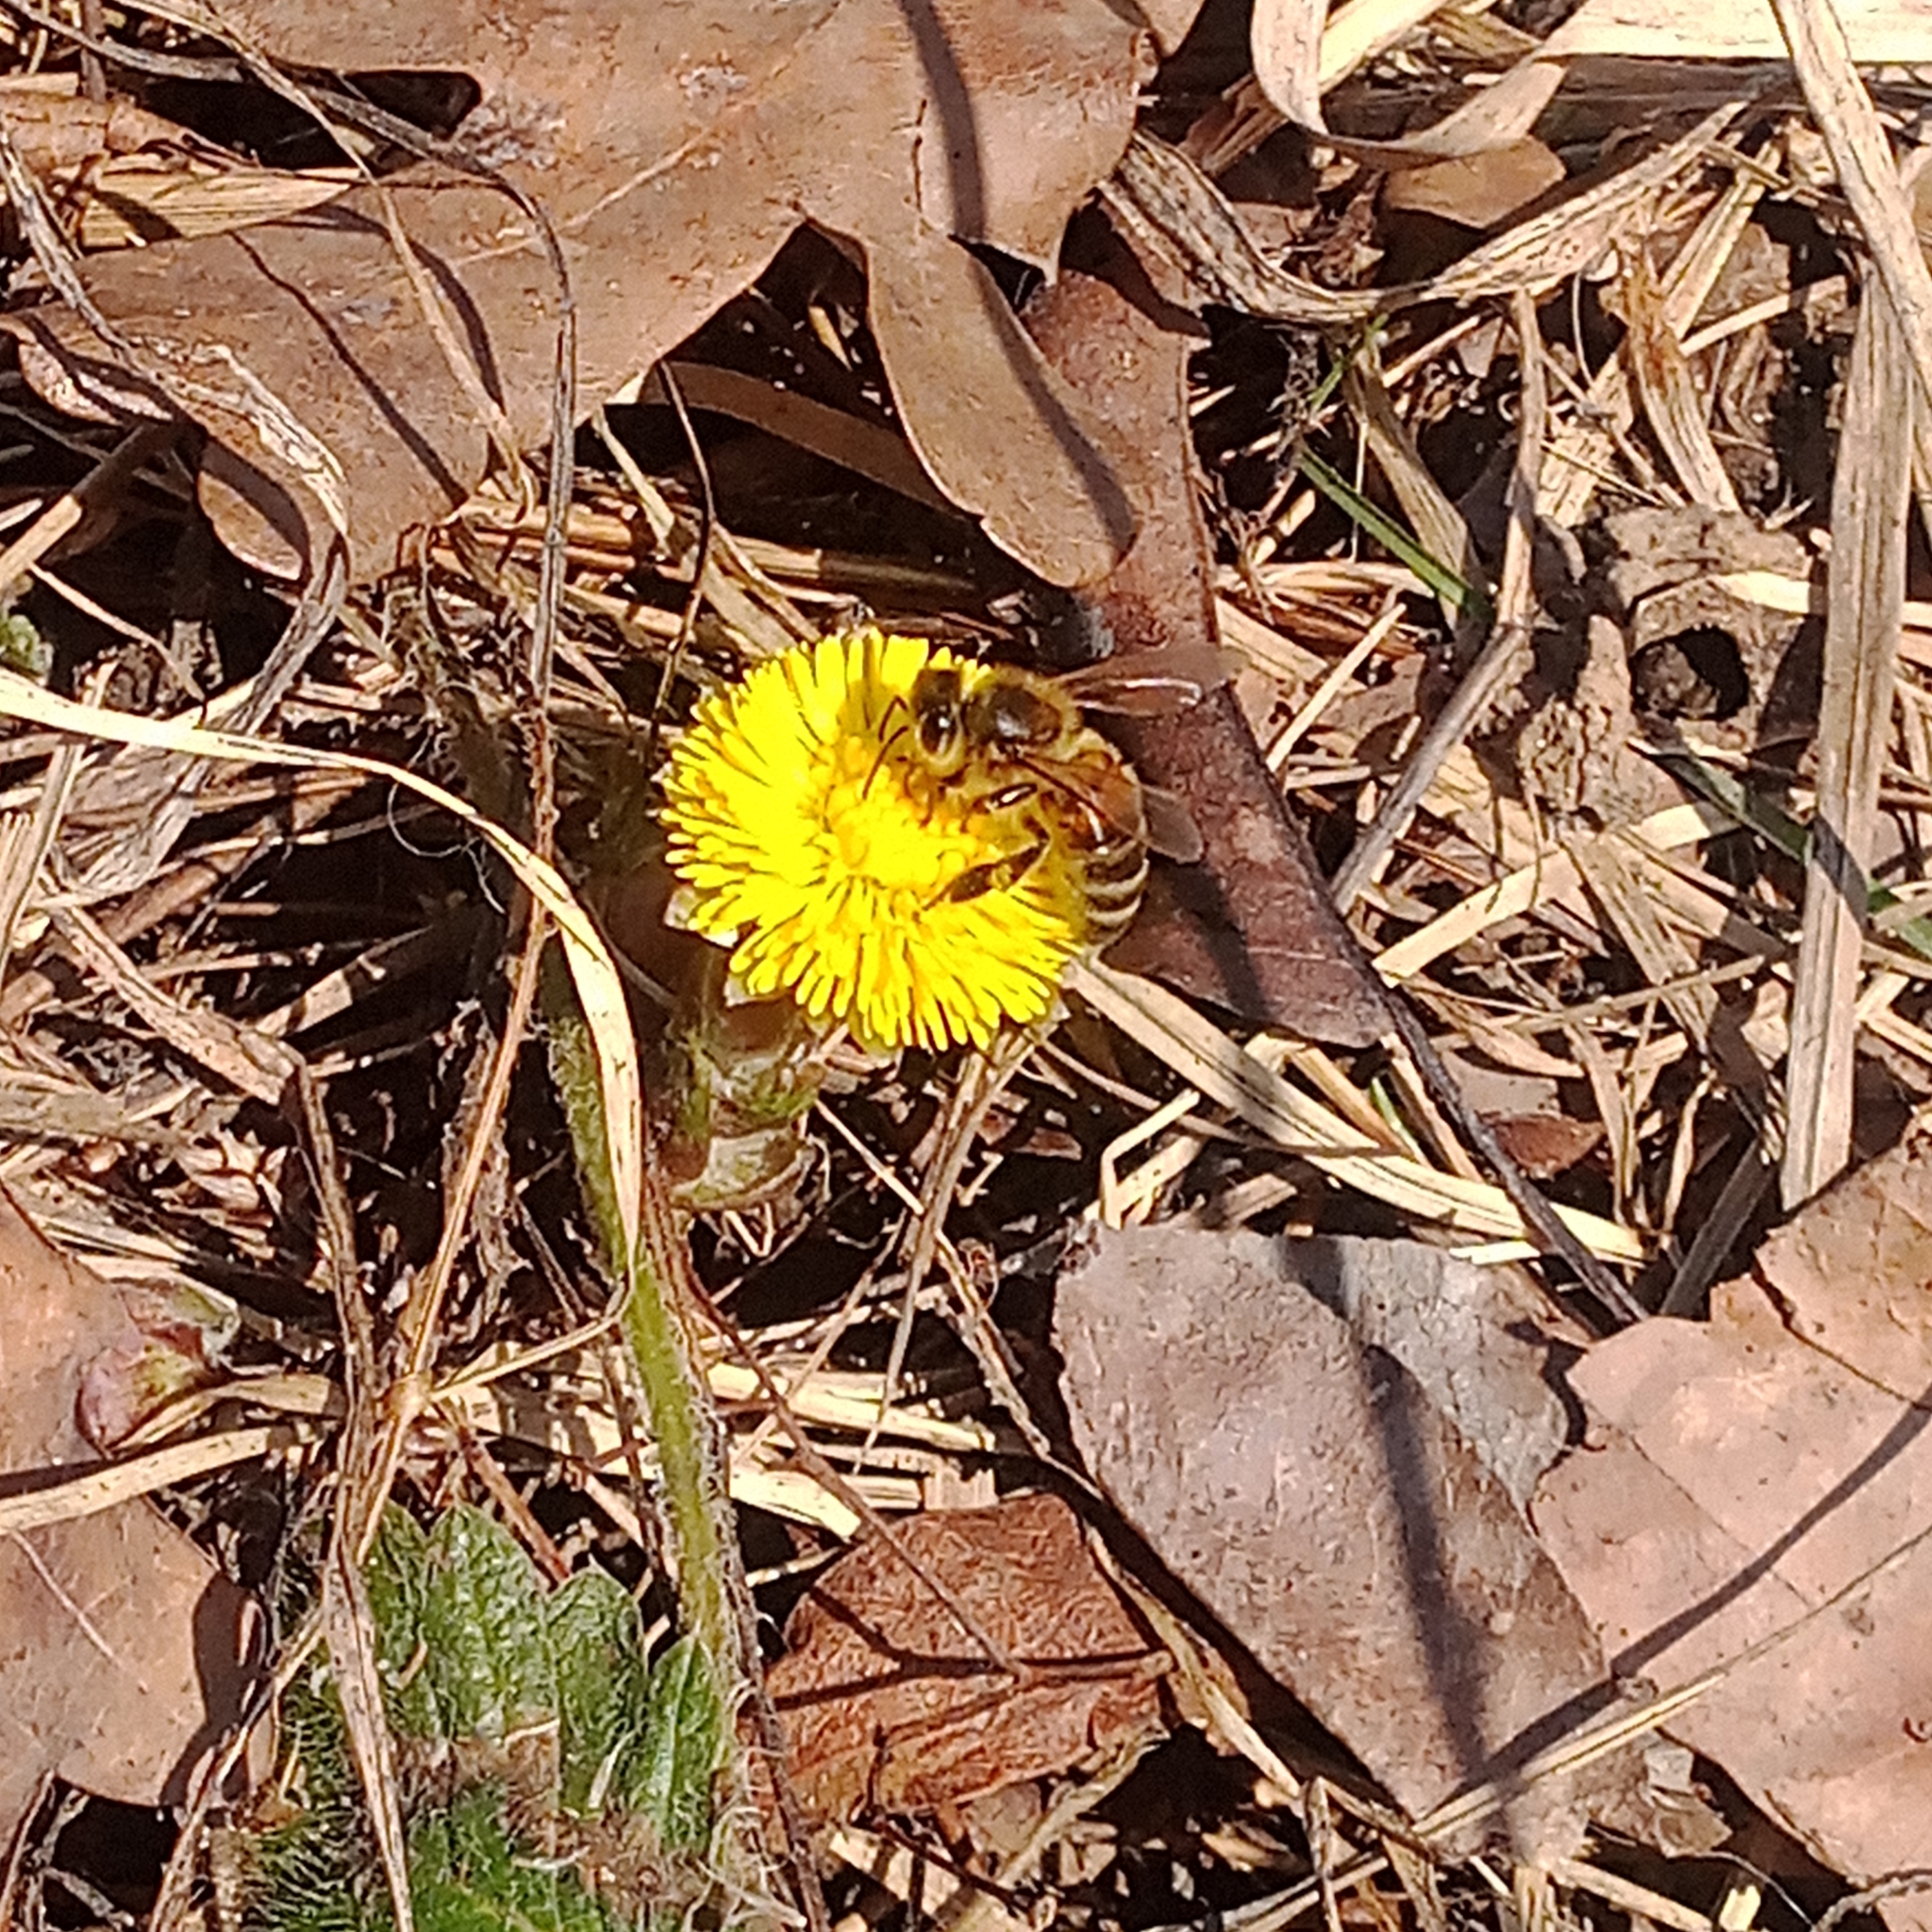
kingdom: Animalia
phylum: Arthropoda
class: Insecta
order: Hymenoptera
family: Apidae
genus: Apis
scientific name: Apis mellifera
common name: Honey bee
